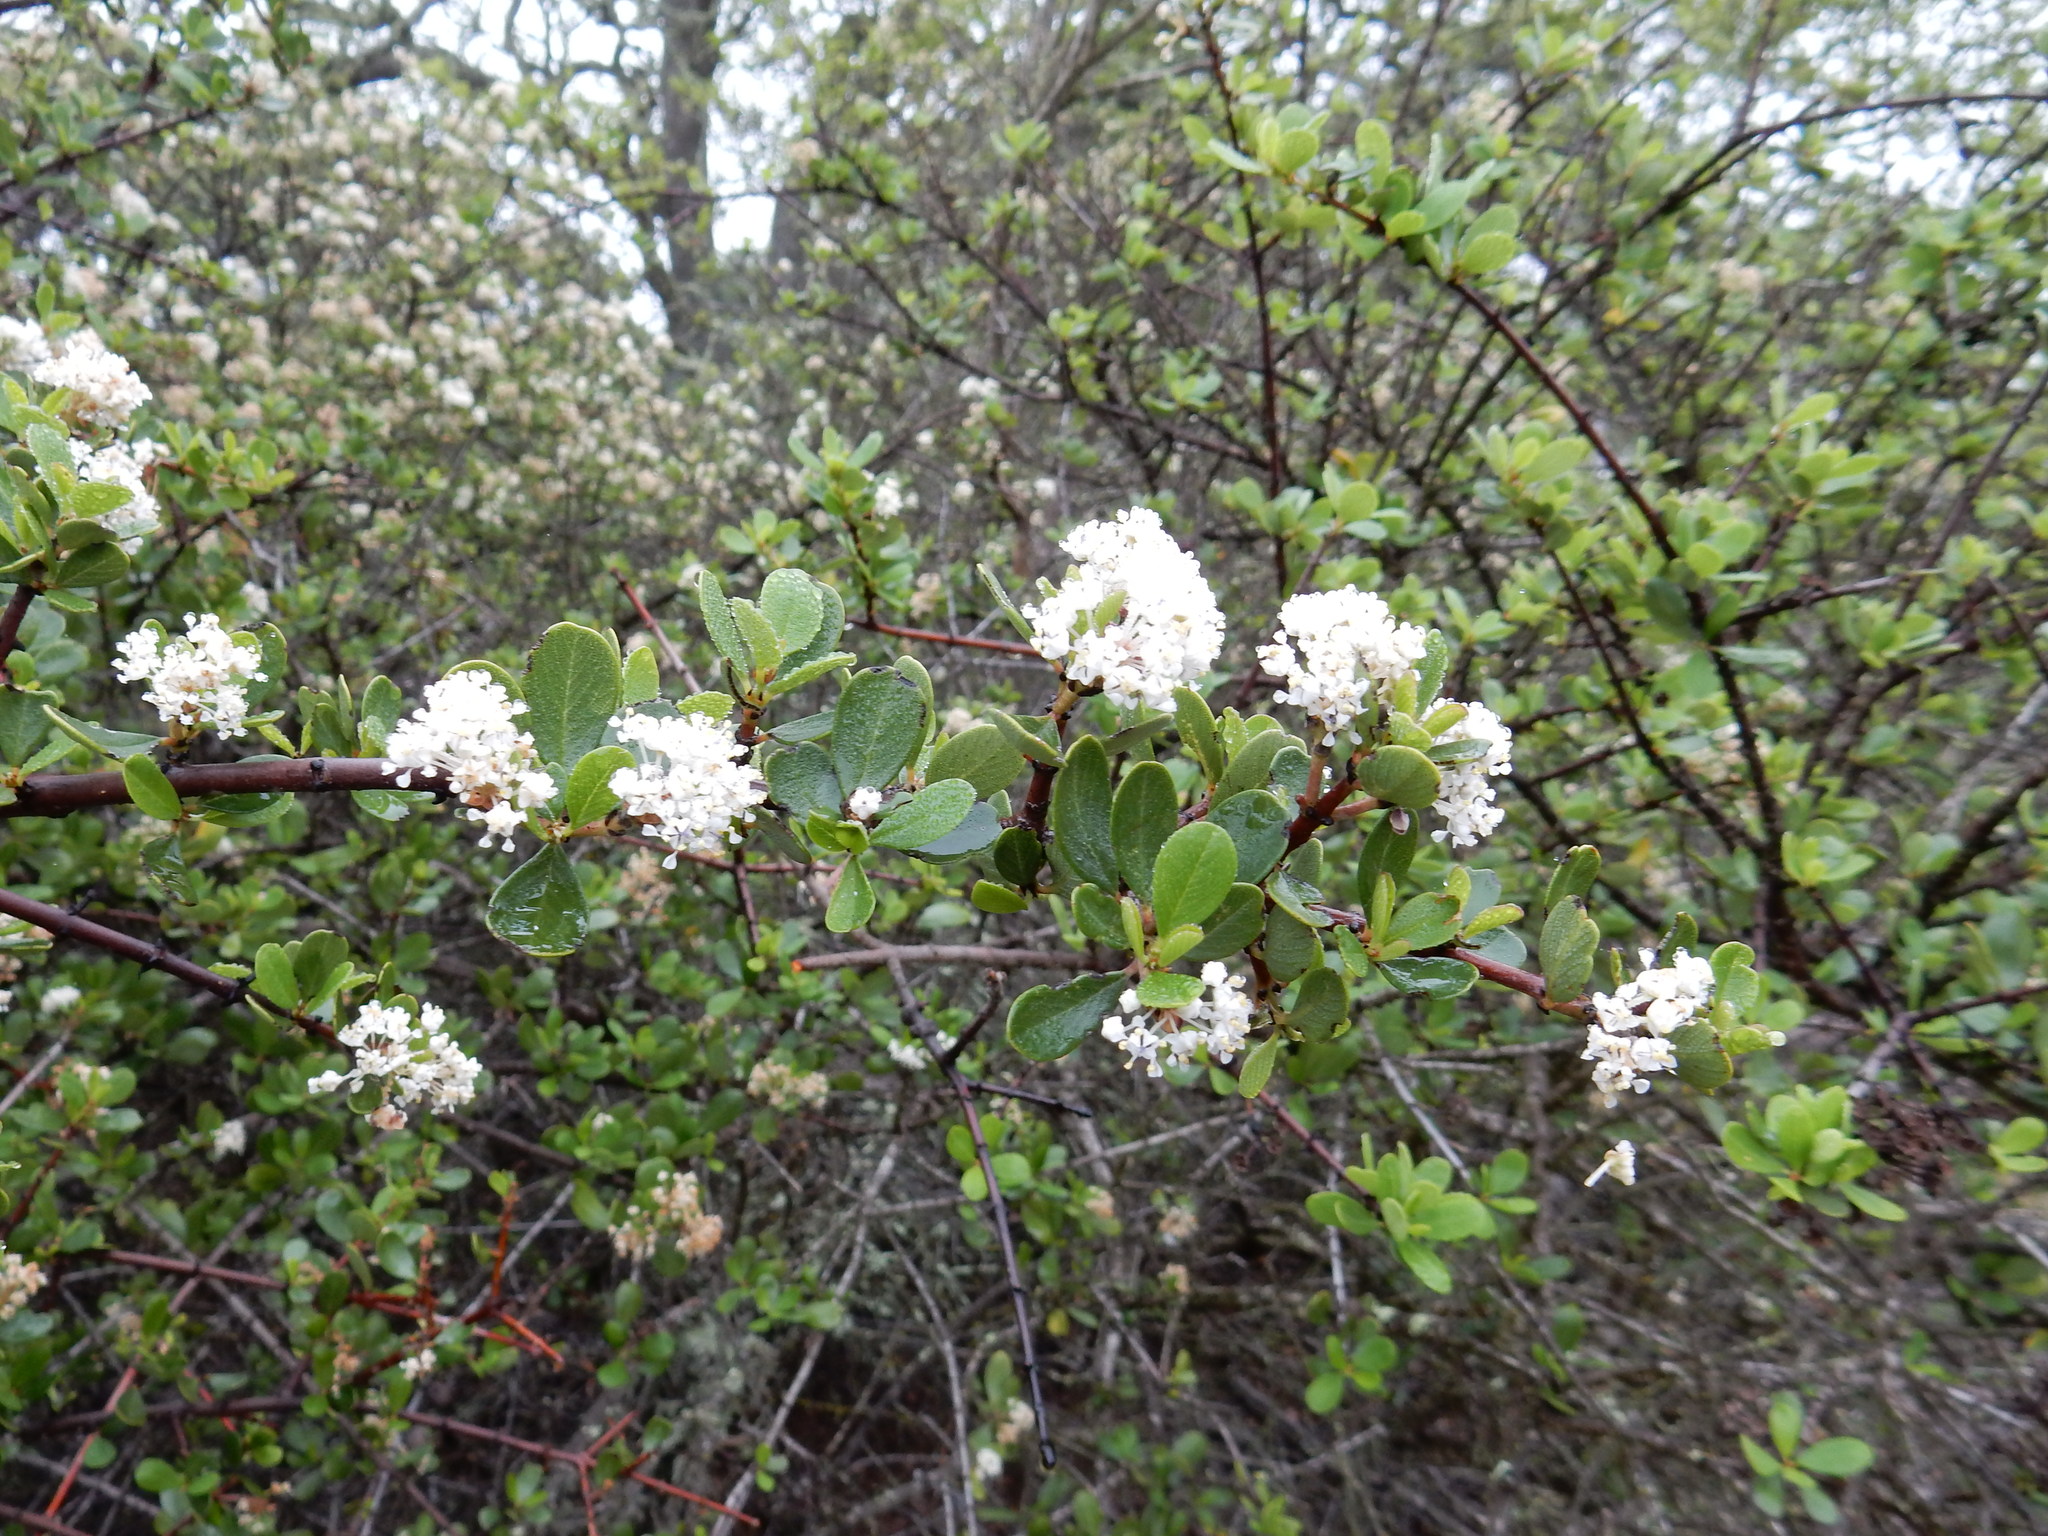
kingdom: Plantae
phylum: Tracheophyta
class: Magnoliopsida
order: Rosales
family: Rhamnaceae
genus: Ceanothus
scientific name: Ceanothus cuneatus
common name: Cuneate ceanothus
